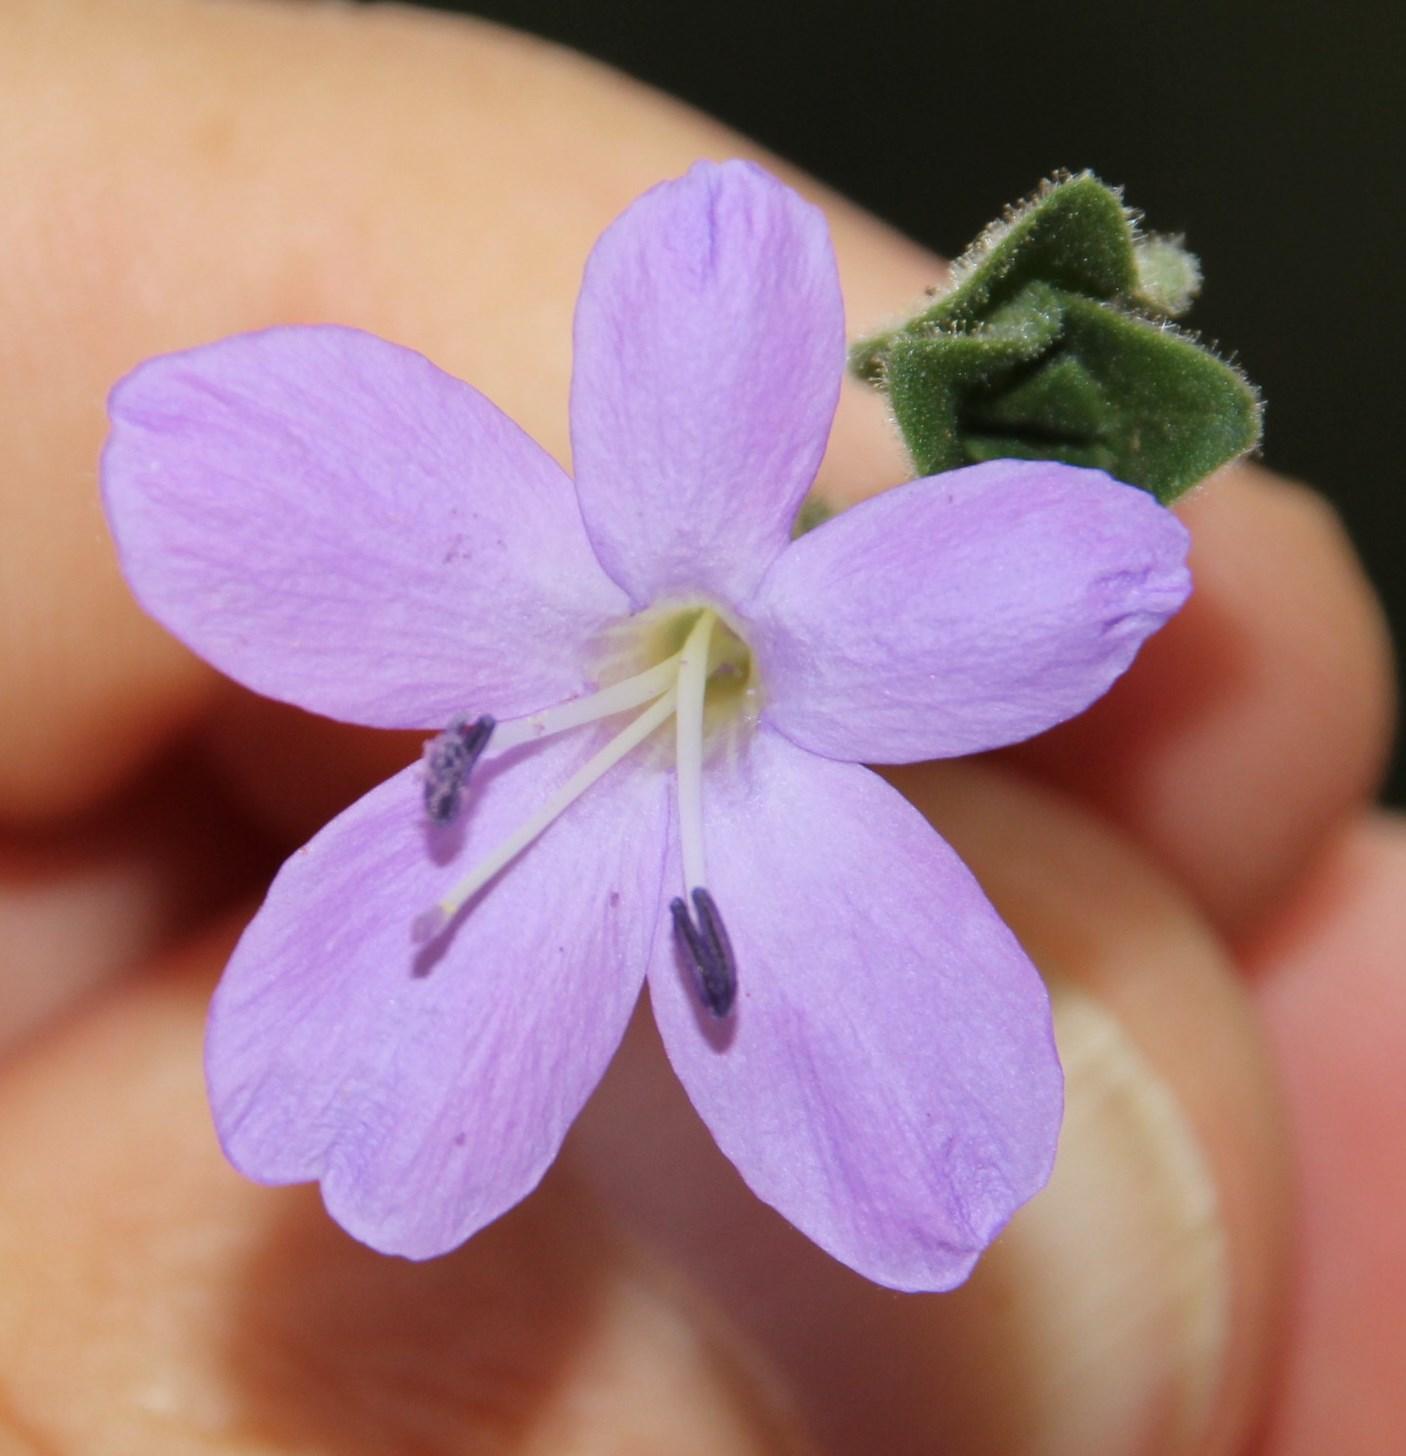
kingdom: Plantae
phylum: Tracheophyta
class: Magnoliopsida
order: Lamiales
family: Acanthaceae
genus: Barleria
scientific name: Barleria obtusa
